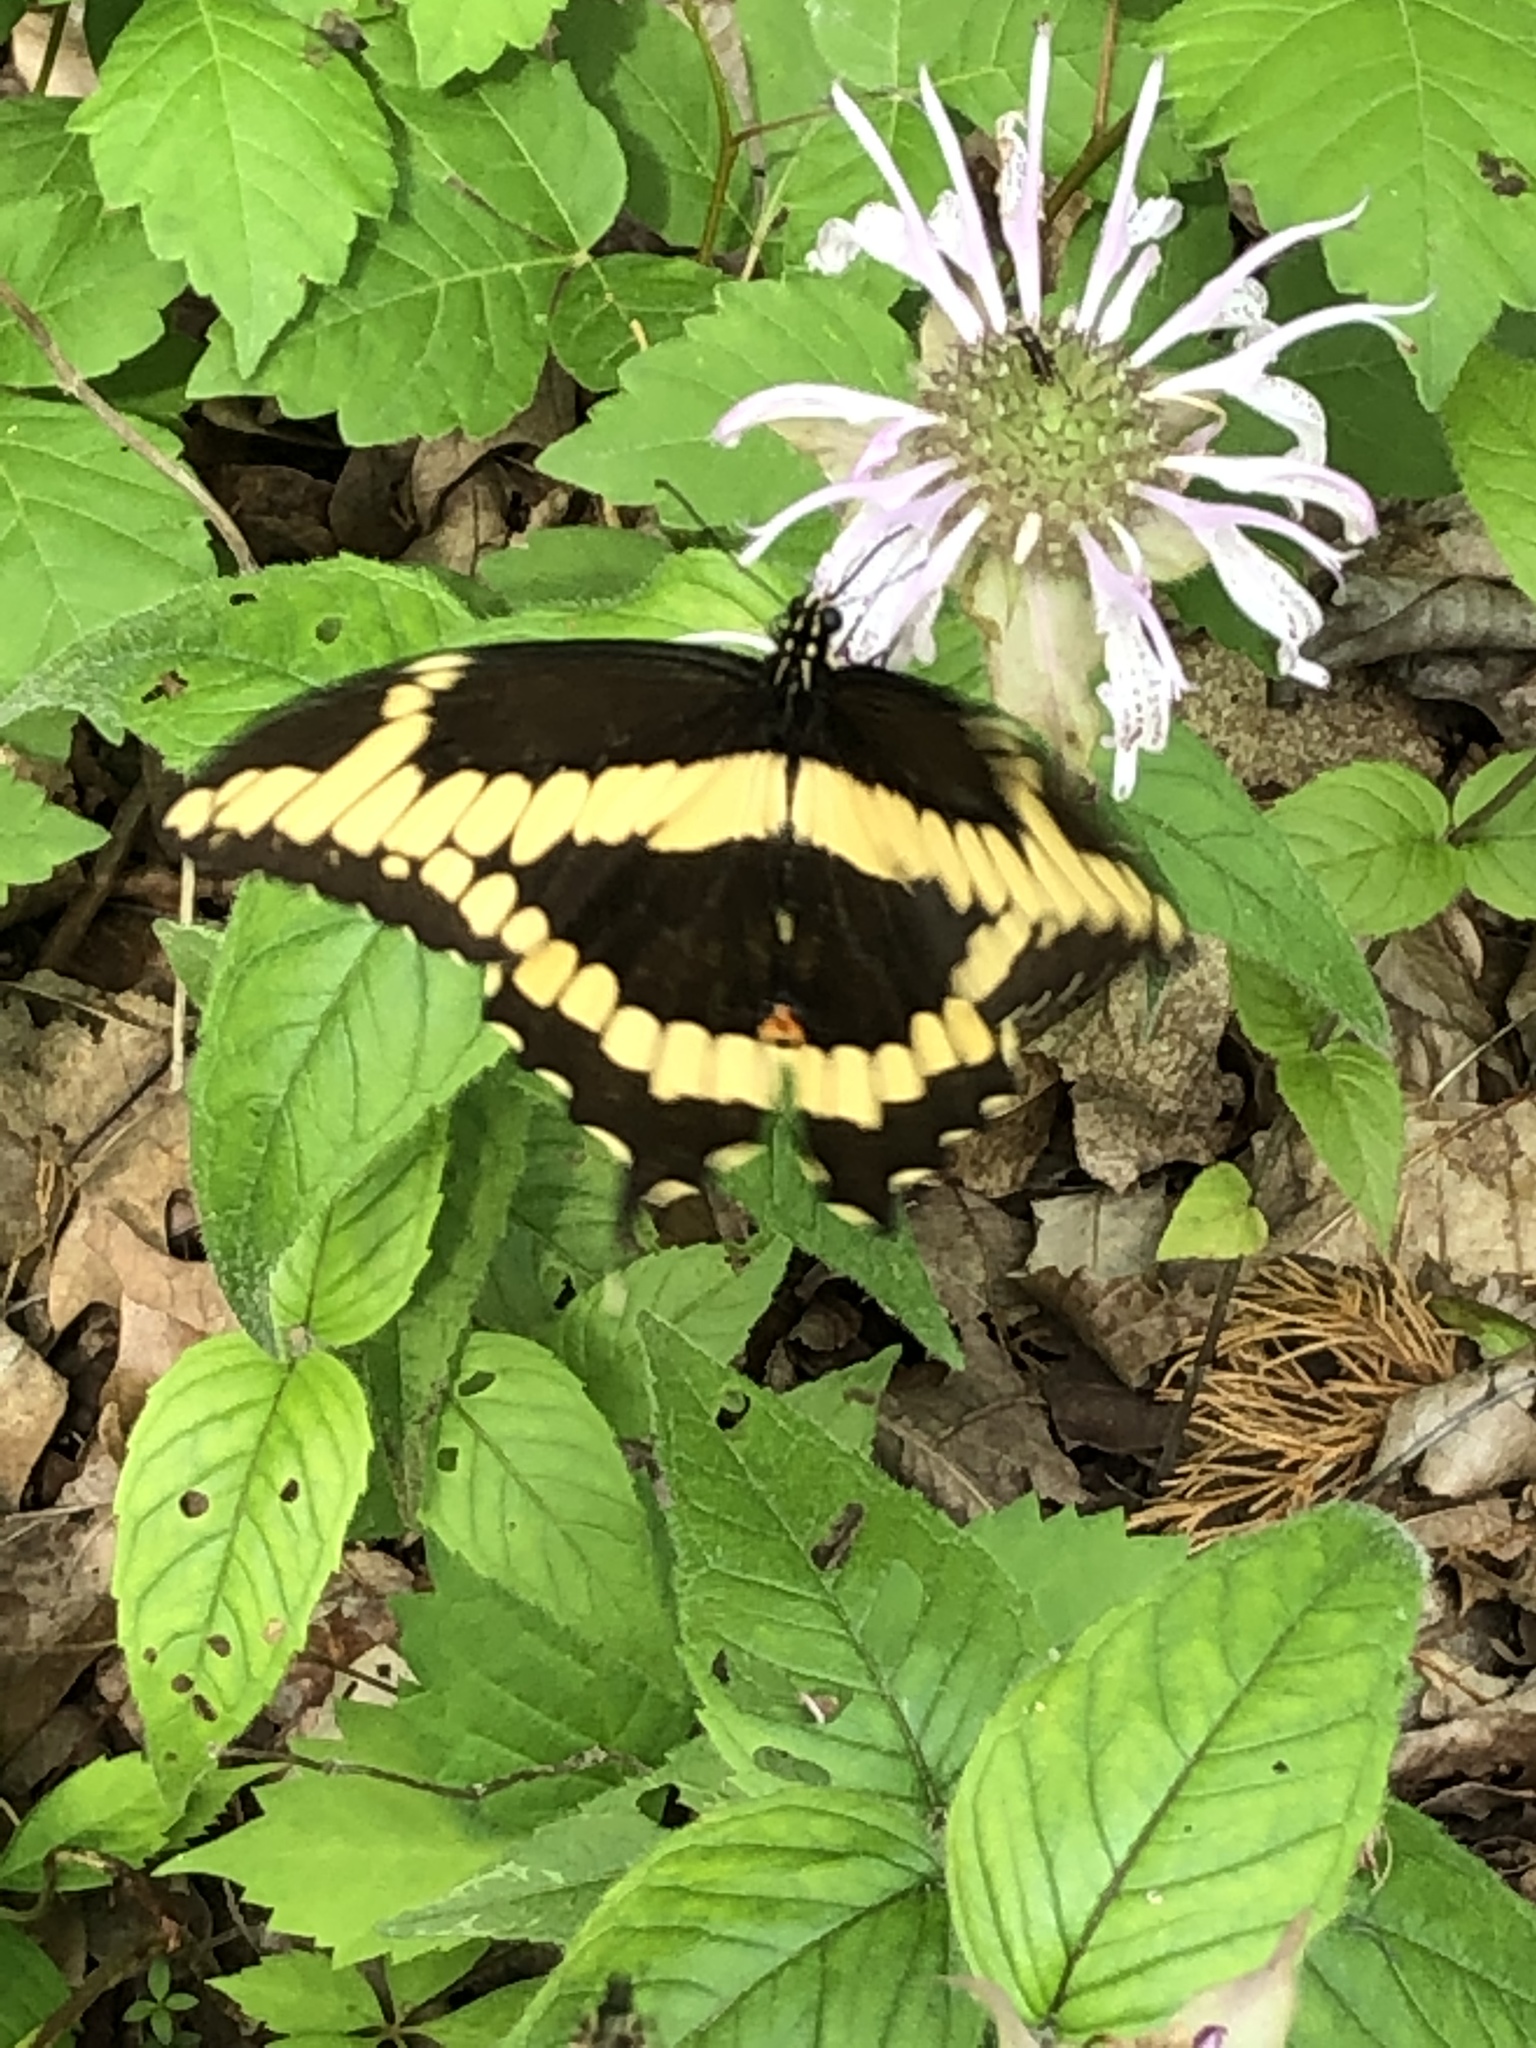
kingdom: Animalia
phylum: Arthropoda
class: Insecta
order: Lepidoptera
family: Papilionidae
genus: Papilio
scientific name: Papilio cresphontes
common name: Giant swallowtail
